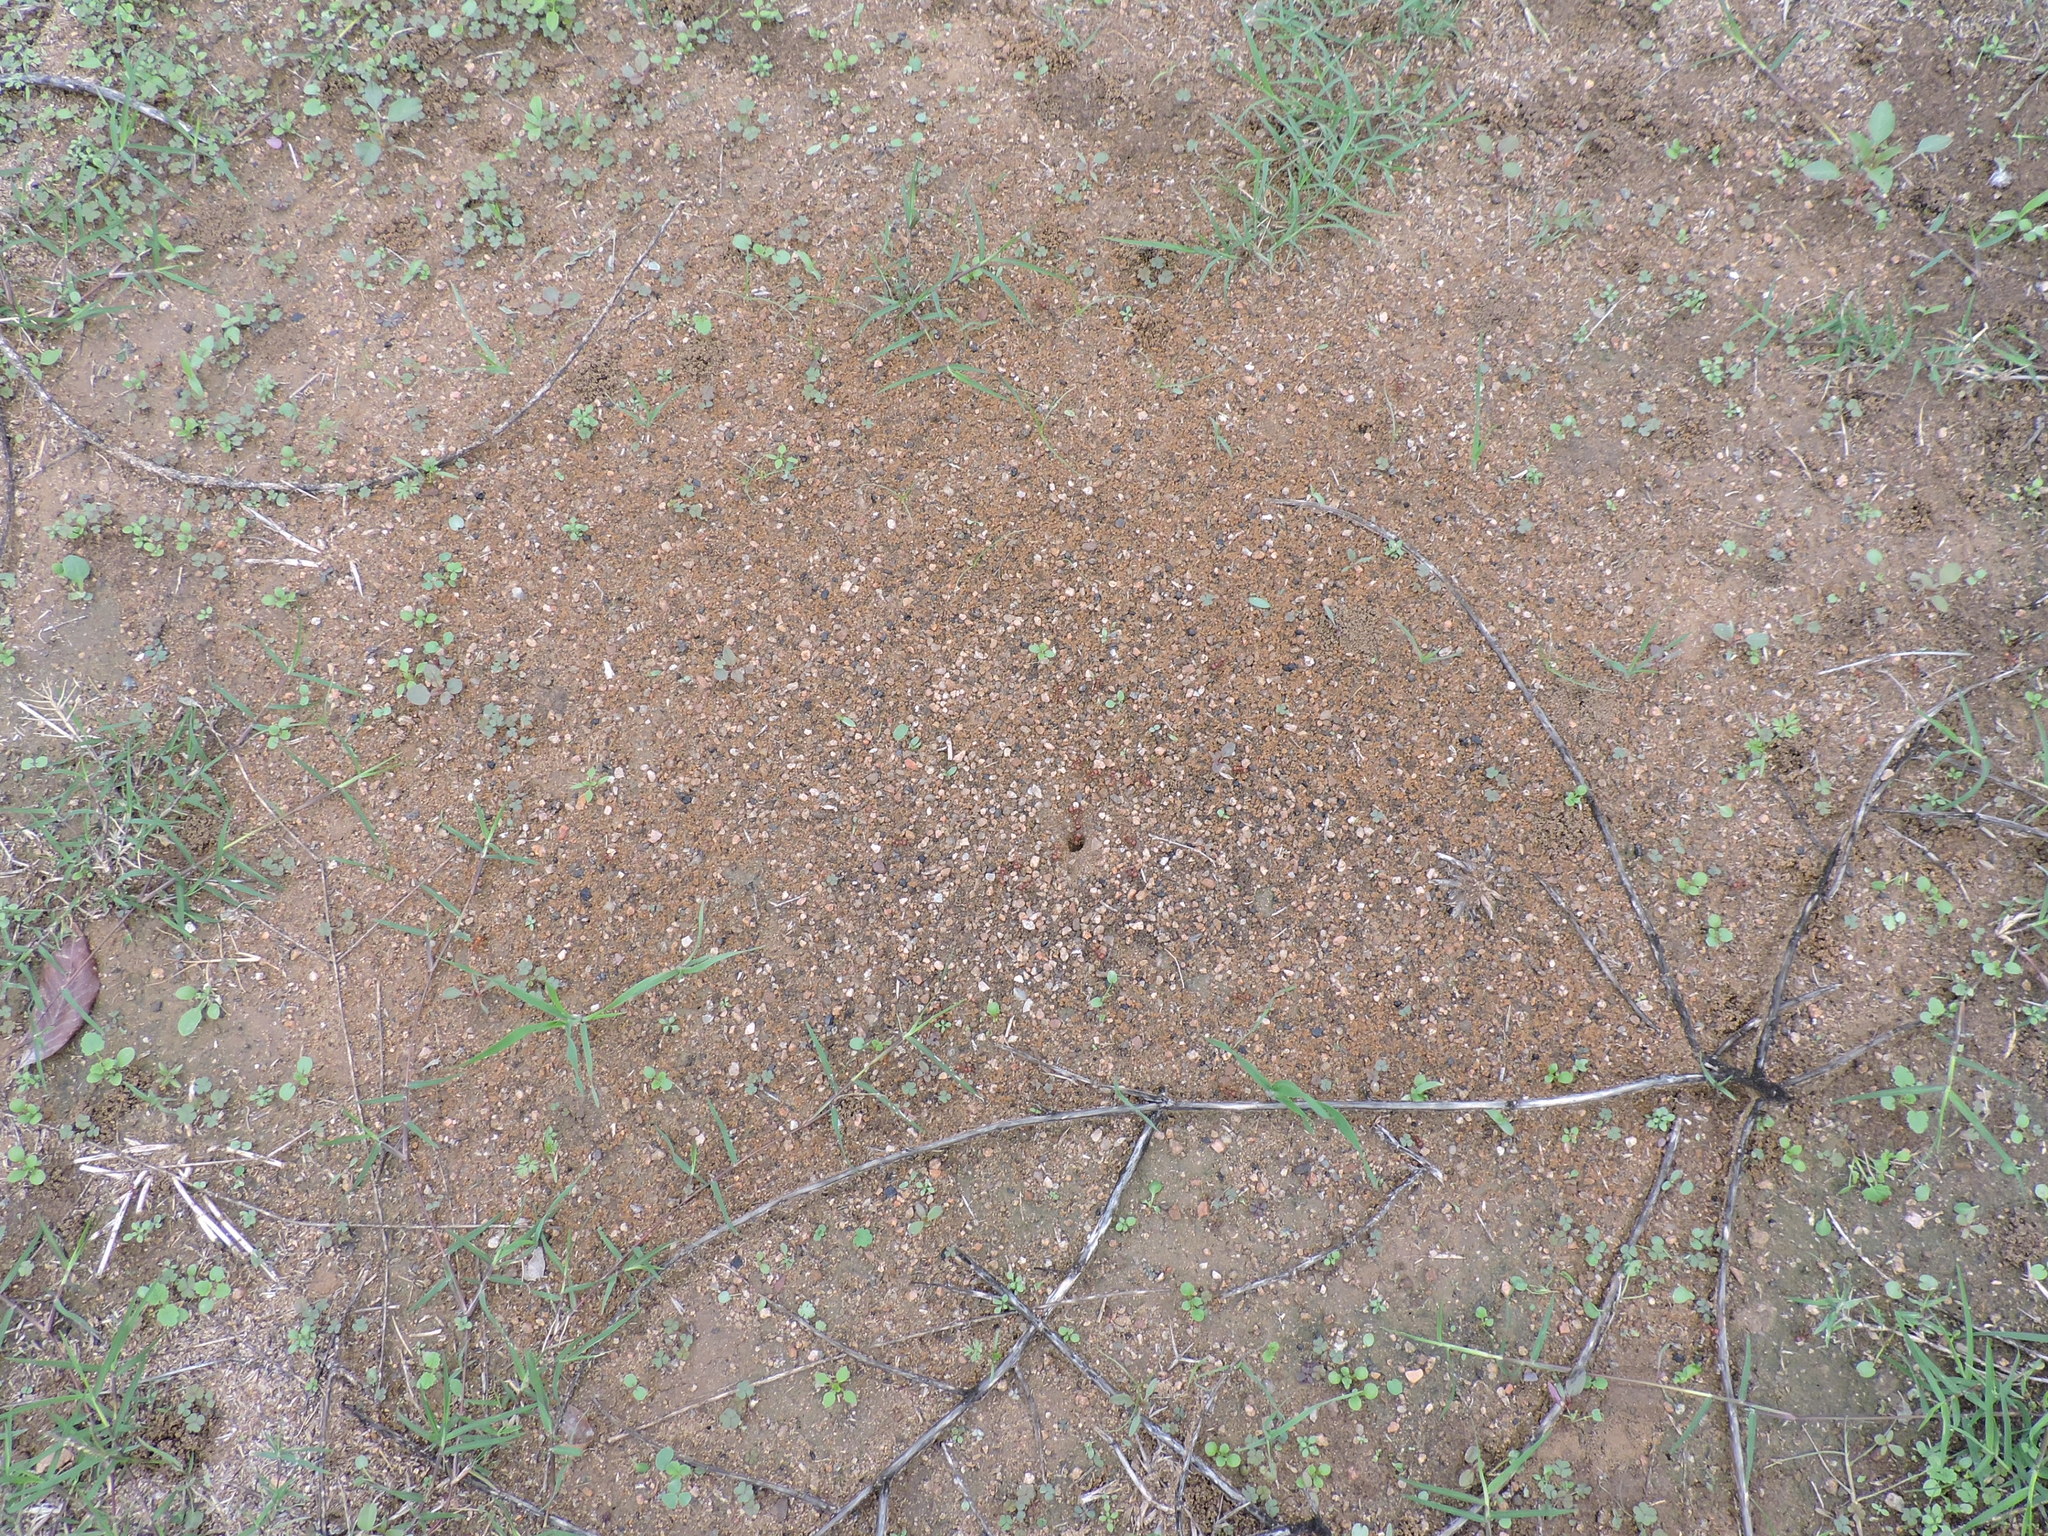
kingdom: Animalia
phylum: Arthropoda
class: Insecta
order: Hymenoptera
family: Formicidae
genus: Pogonomyrmex
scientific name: Pogonomyrmex barbatus
